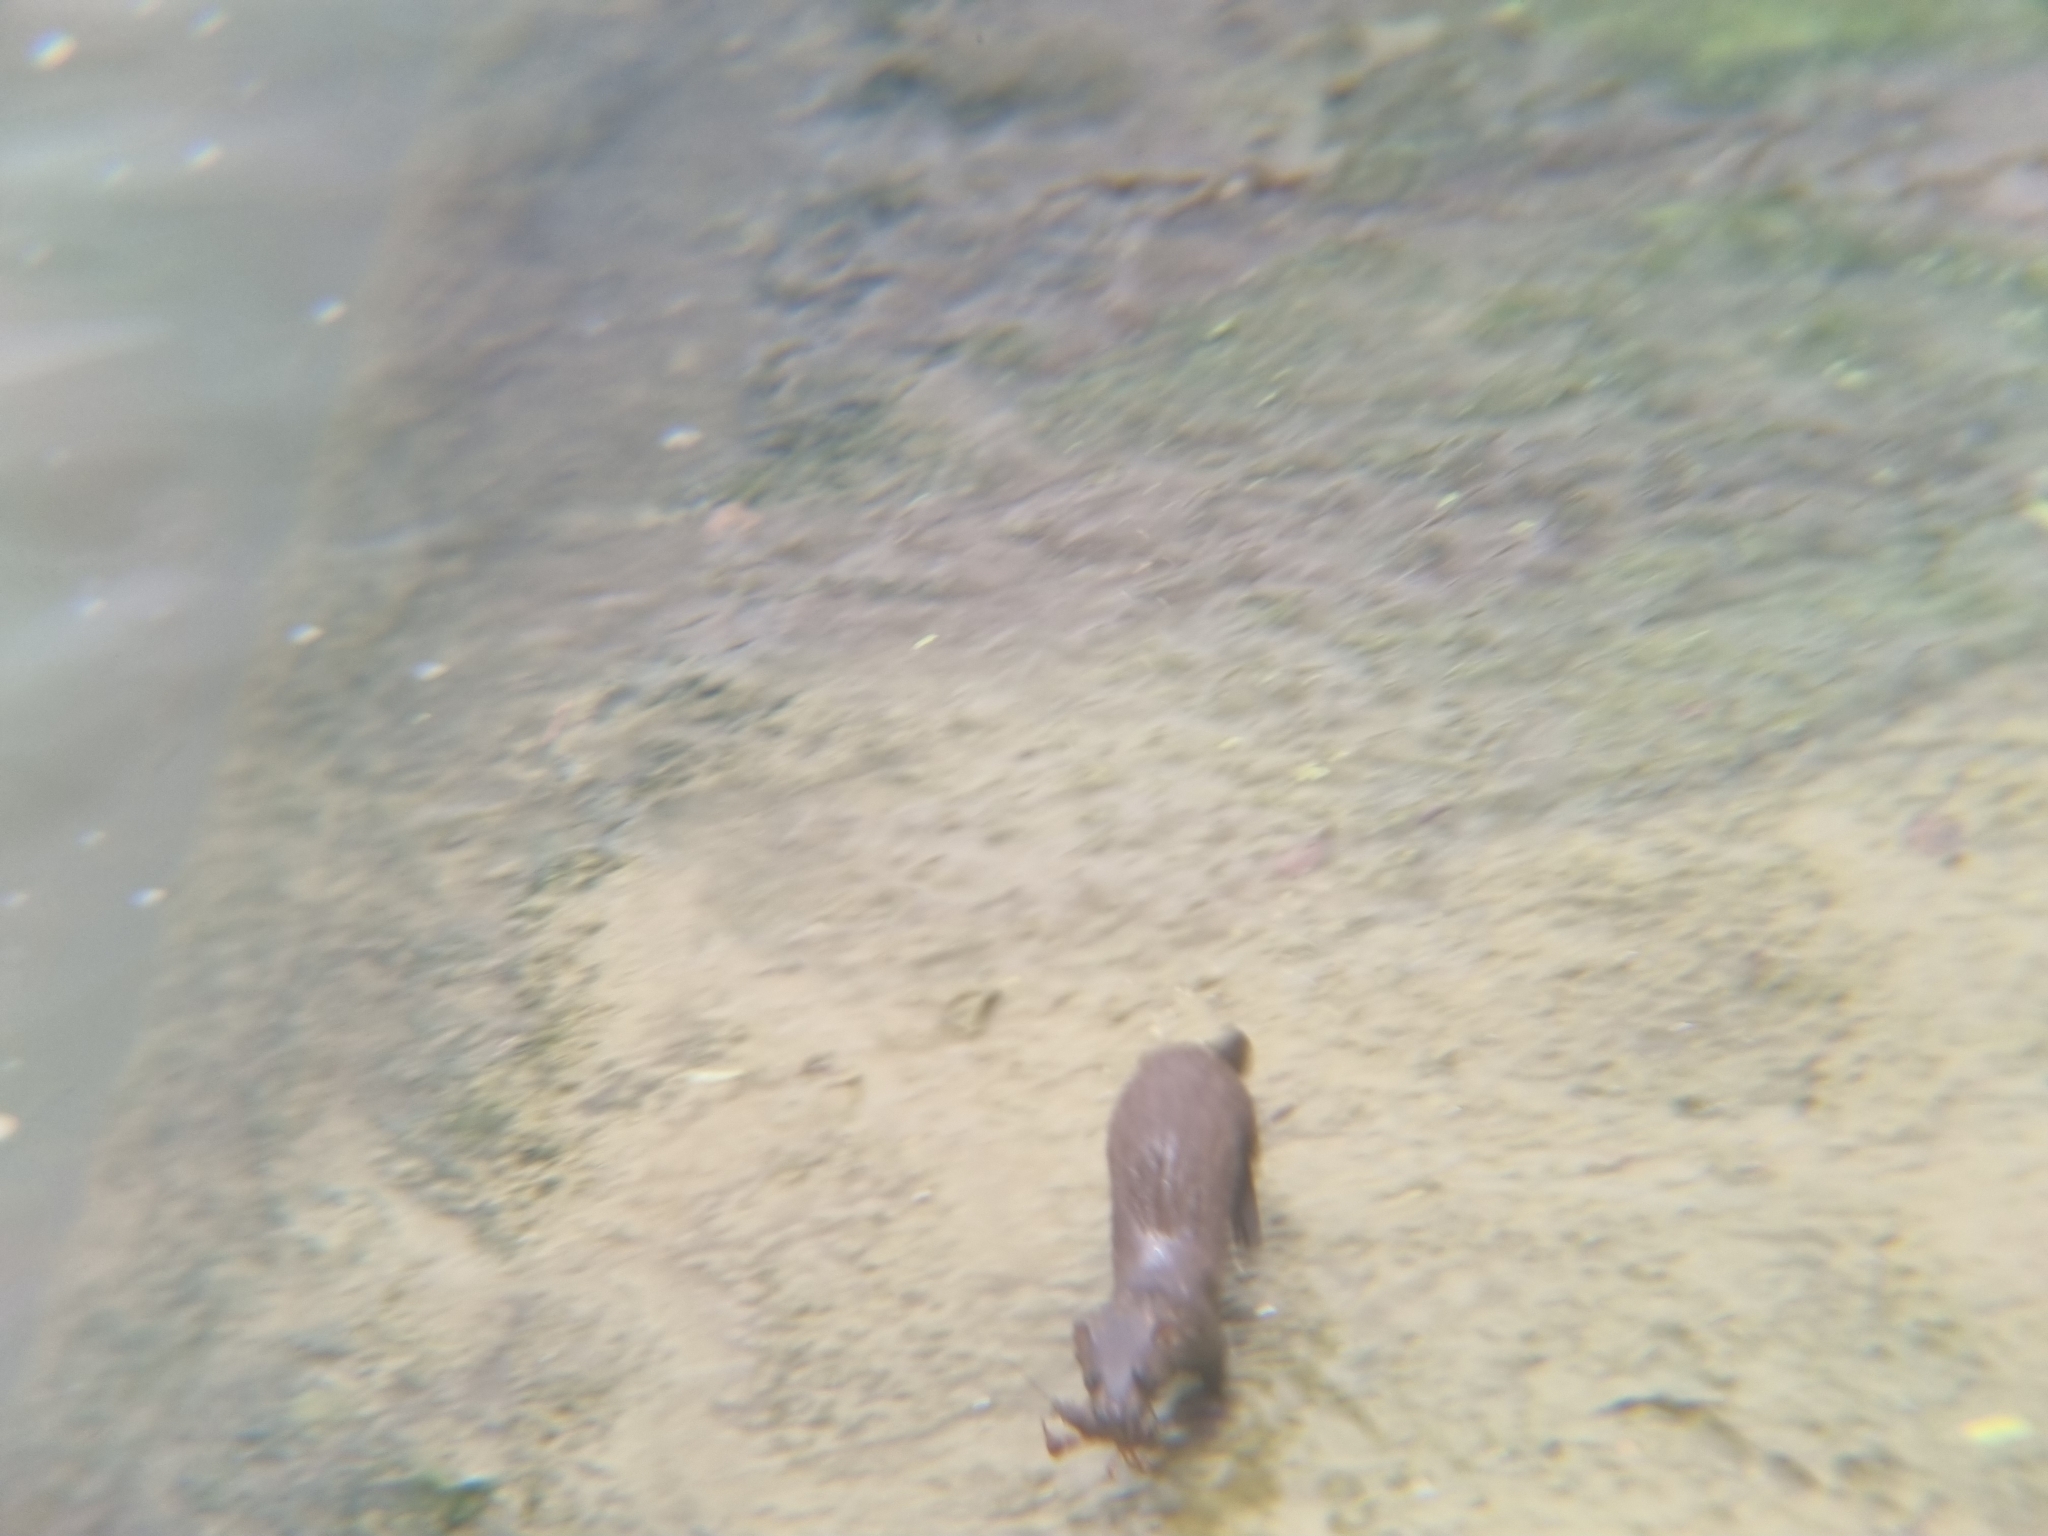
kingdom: Animalia
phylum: Chordata
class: Mammalia
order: Carnivora
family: Mustelidae
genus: Mustela
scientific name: Mustela
